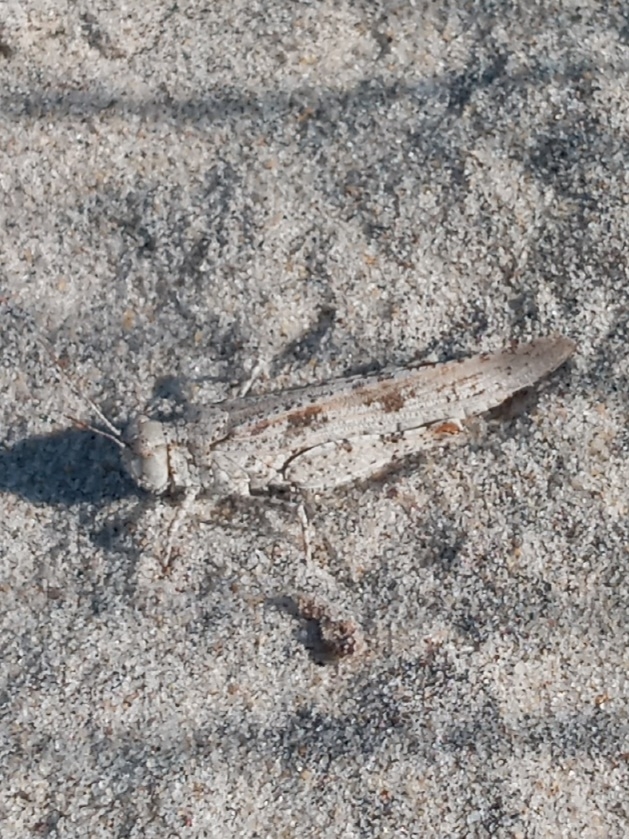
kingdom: Animalia
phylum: Arthropoda
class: Insecta
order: Orthoptera
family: Acrididae
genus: Trimerotropis
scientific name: Trimerotropis maritima
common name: Seaside locust
